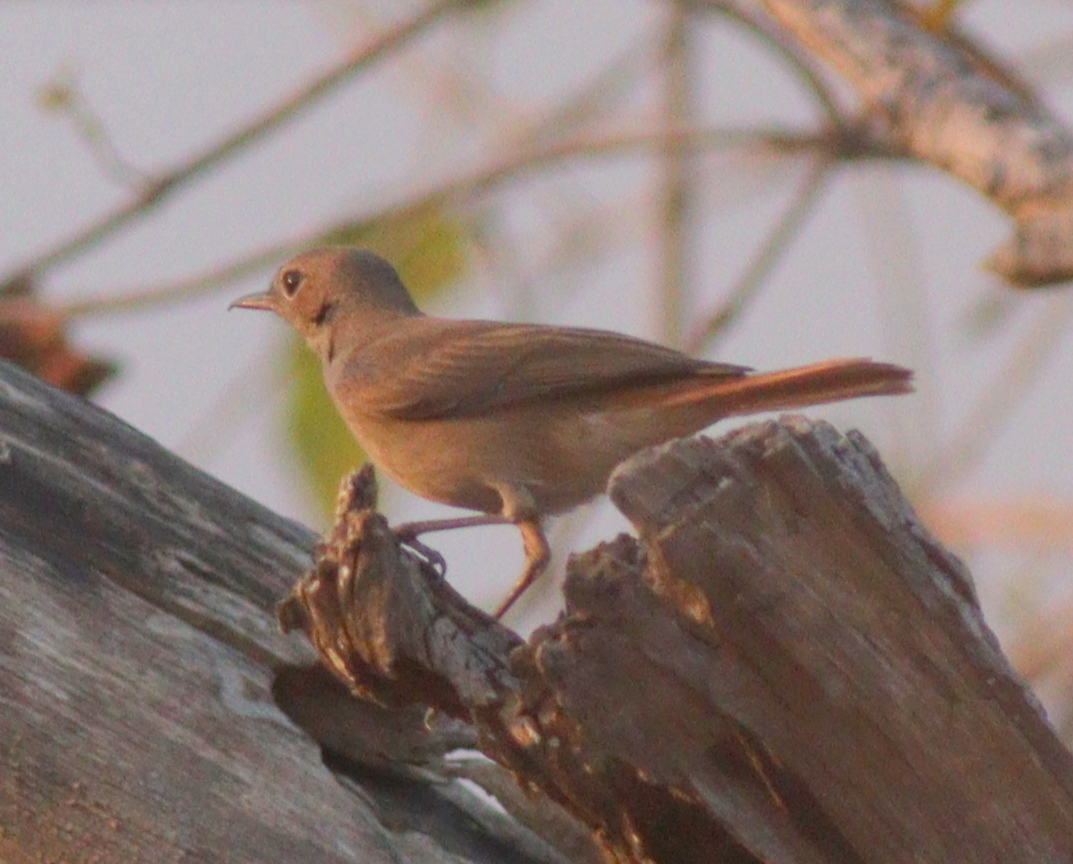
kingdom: Animalia
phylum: Chordata
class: Aves
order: Passeriformes
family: Muscicapidae
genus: Oenanthe
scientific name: Oenanthe familiaris
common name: Familiar chat
